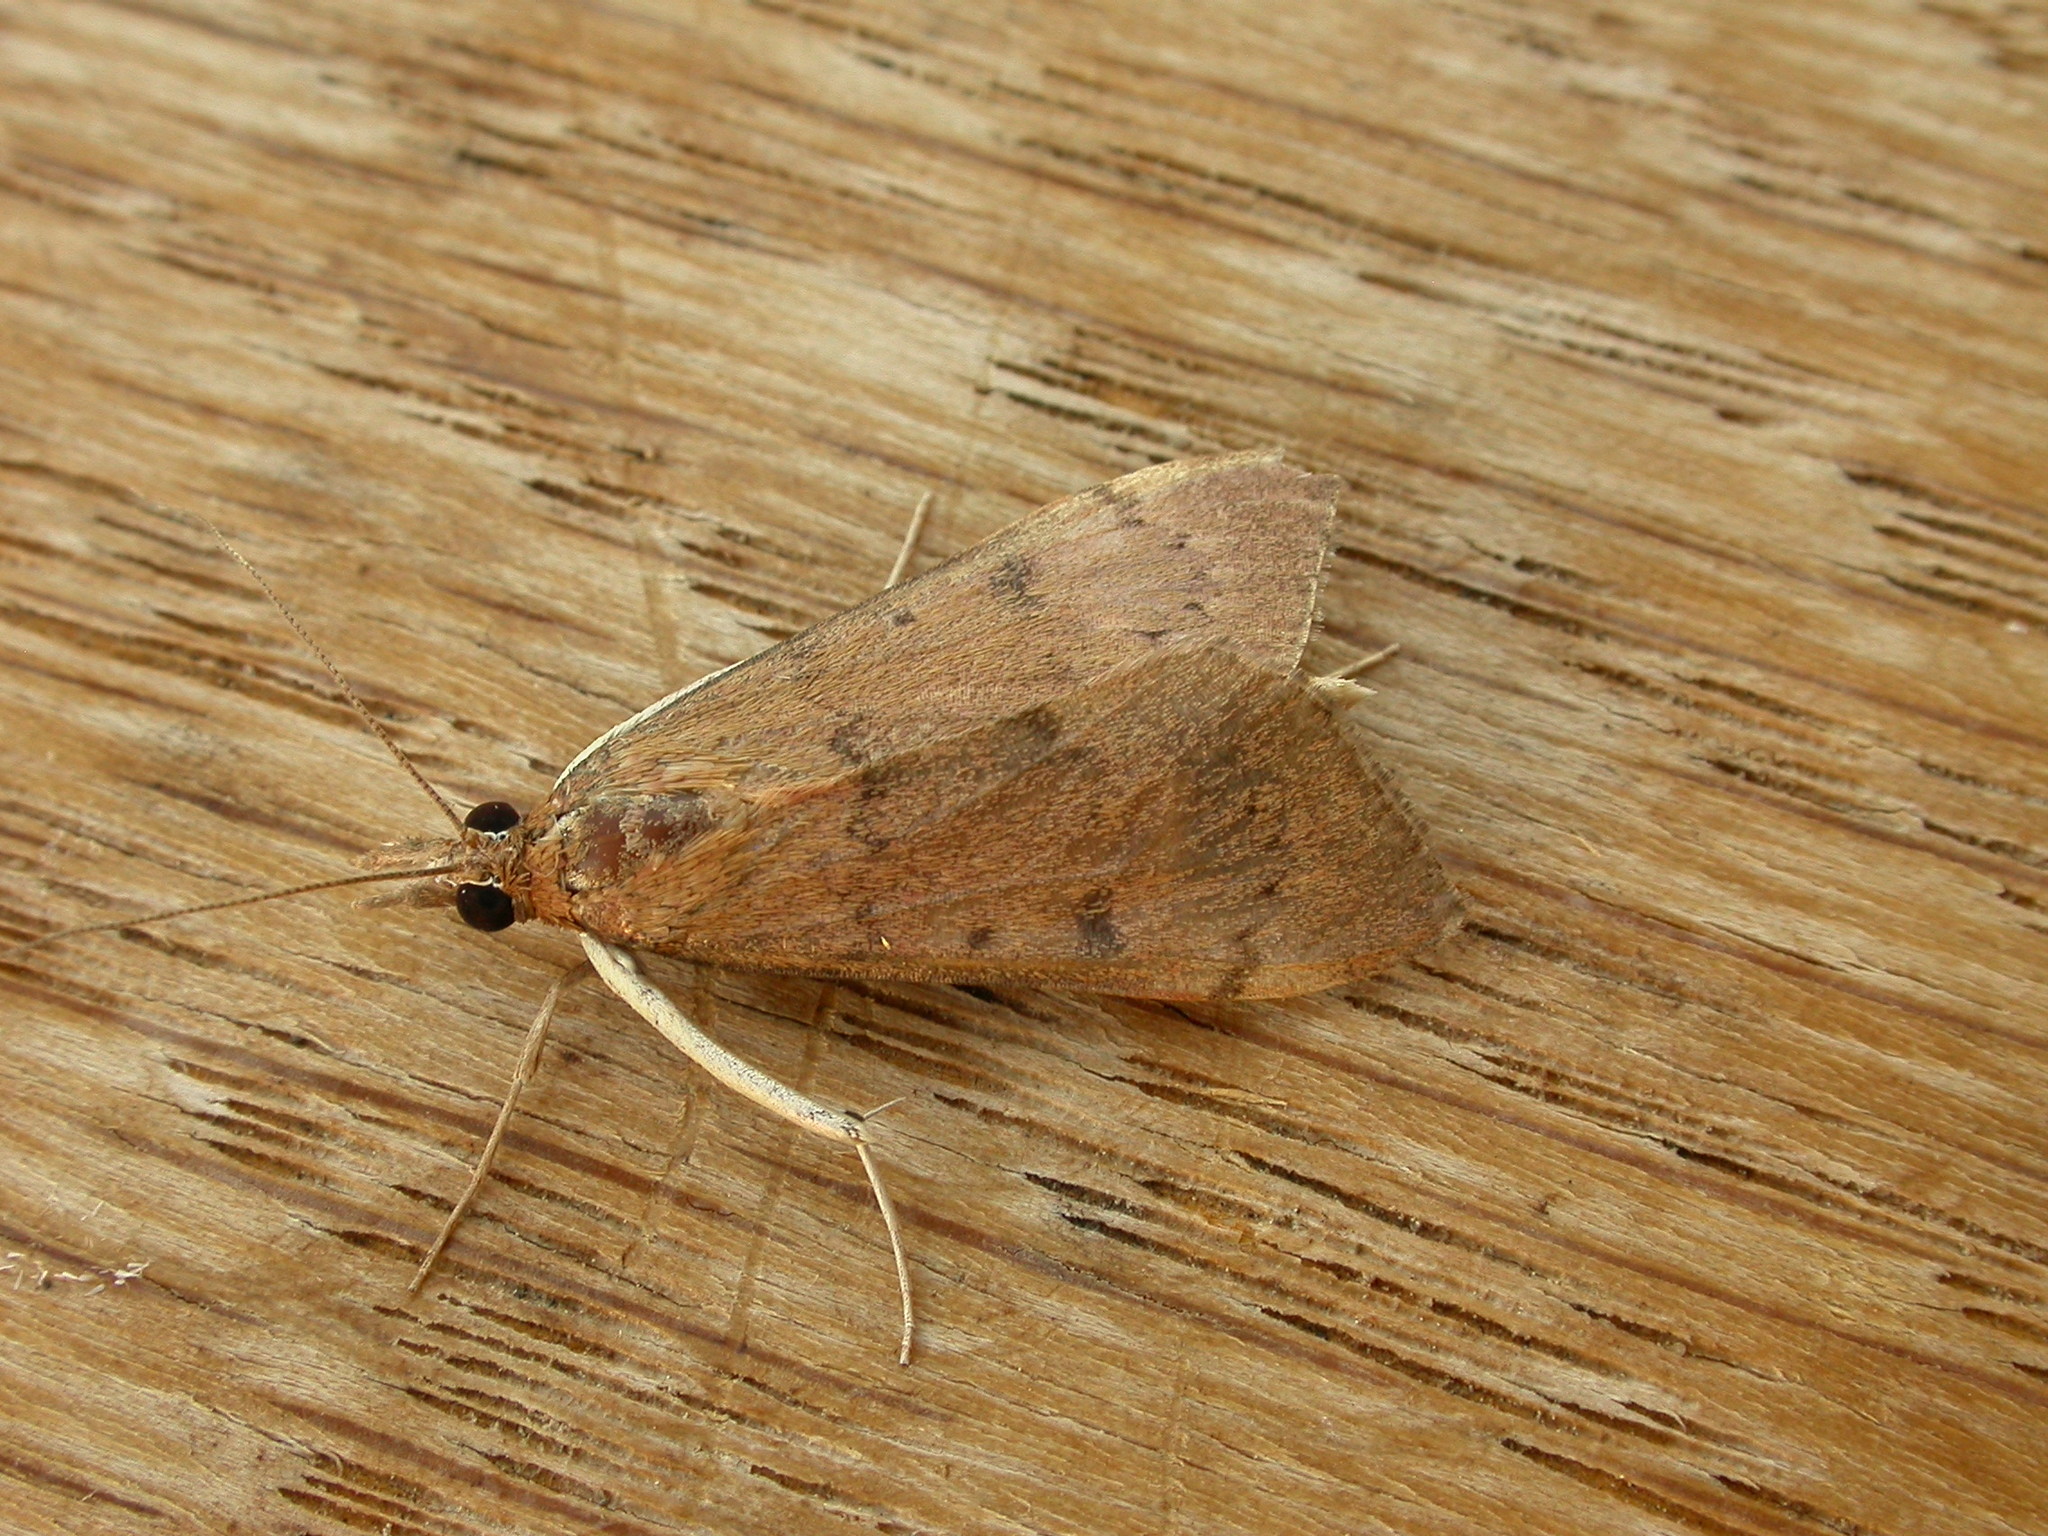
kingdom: Animalia
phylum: Arthropoda
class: Insecta
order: Lepidoptera
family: Crambidae
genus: Uresiphita
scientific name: Uresiphita ornithopteralis
